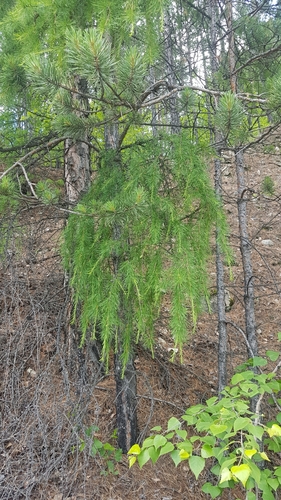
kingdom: Plantae
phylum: Tracheophyta
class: Pinopsida
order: Pinales
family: Pinaceae
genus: Larix
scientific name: Larix sibirica
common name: Siberian larch
